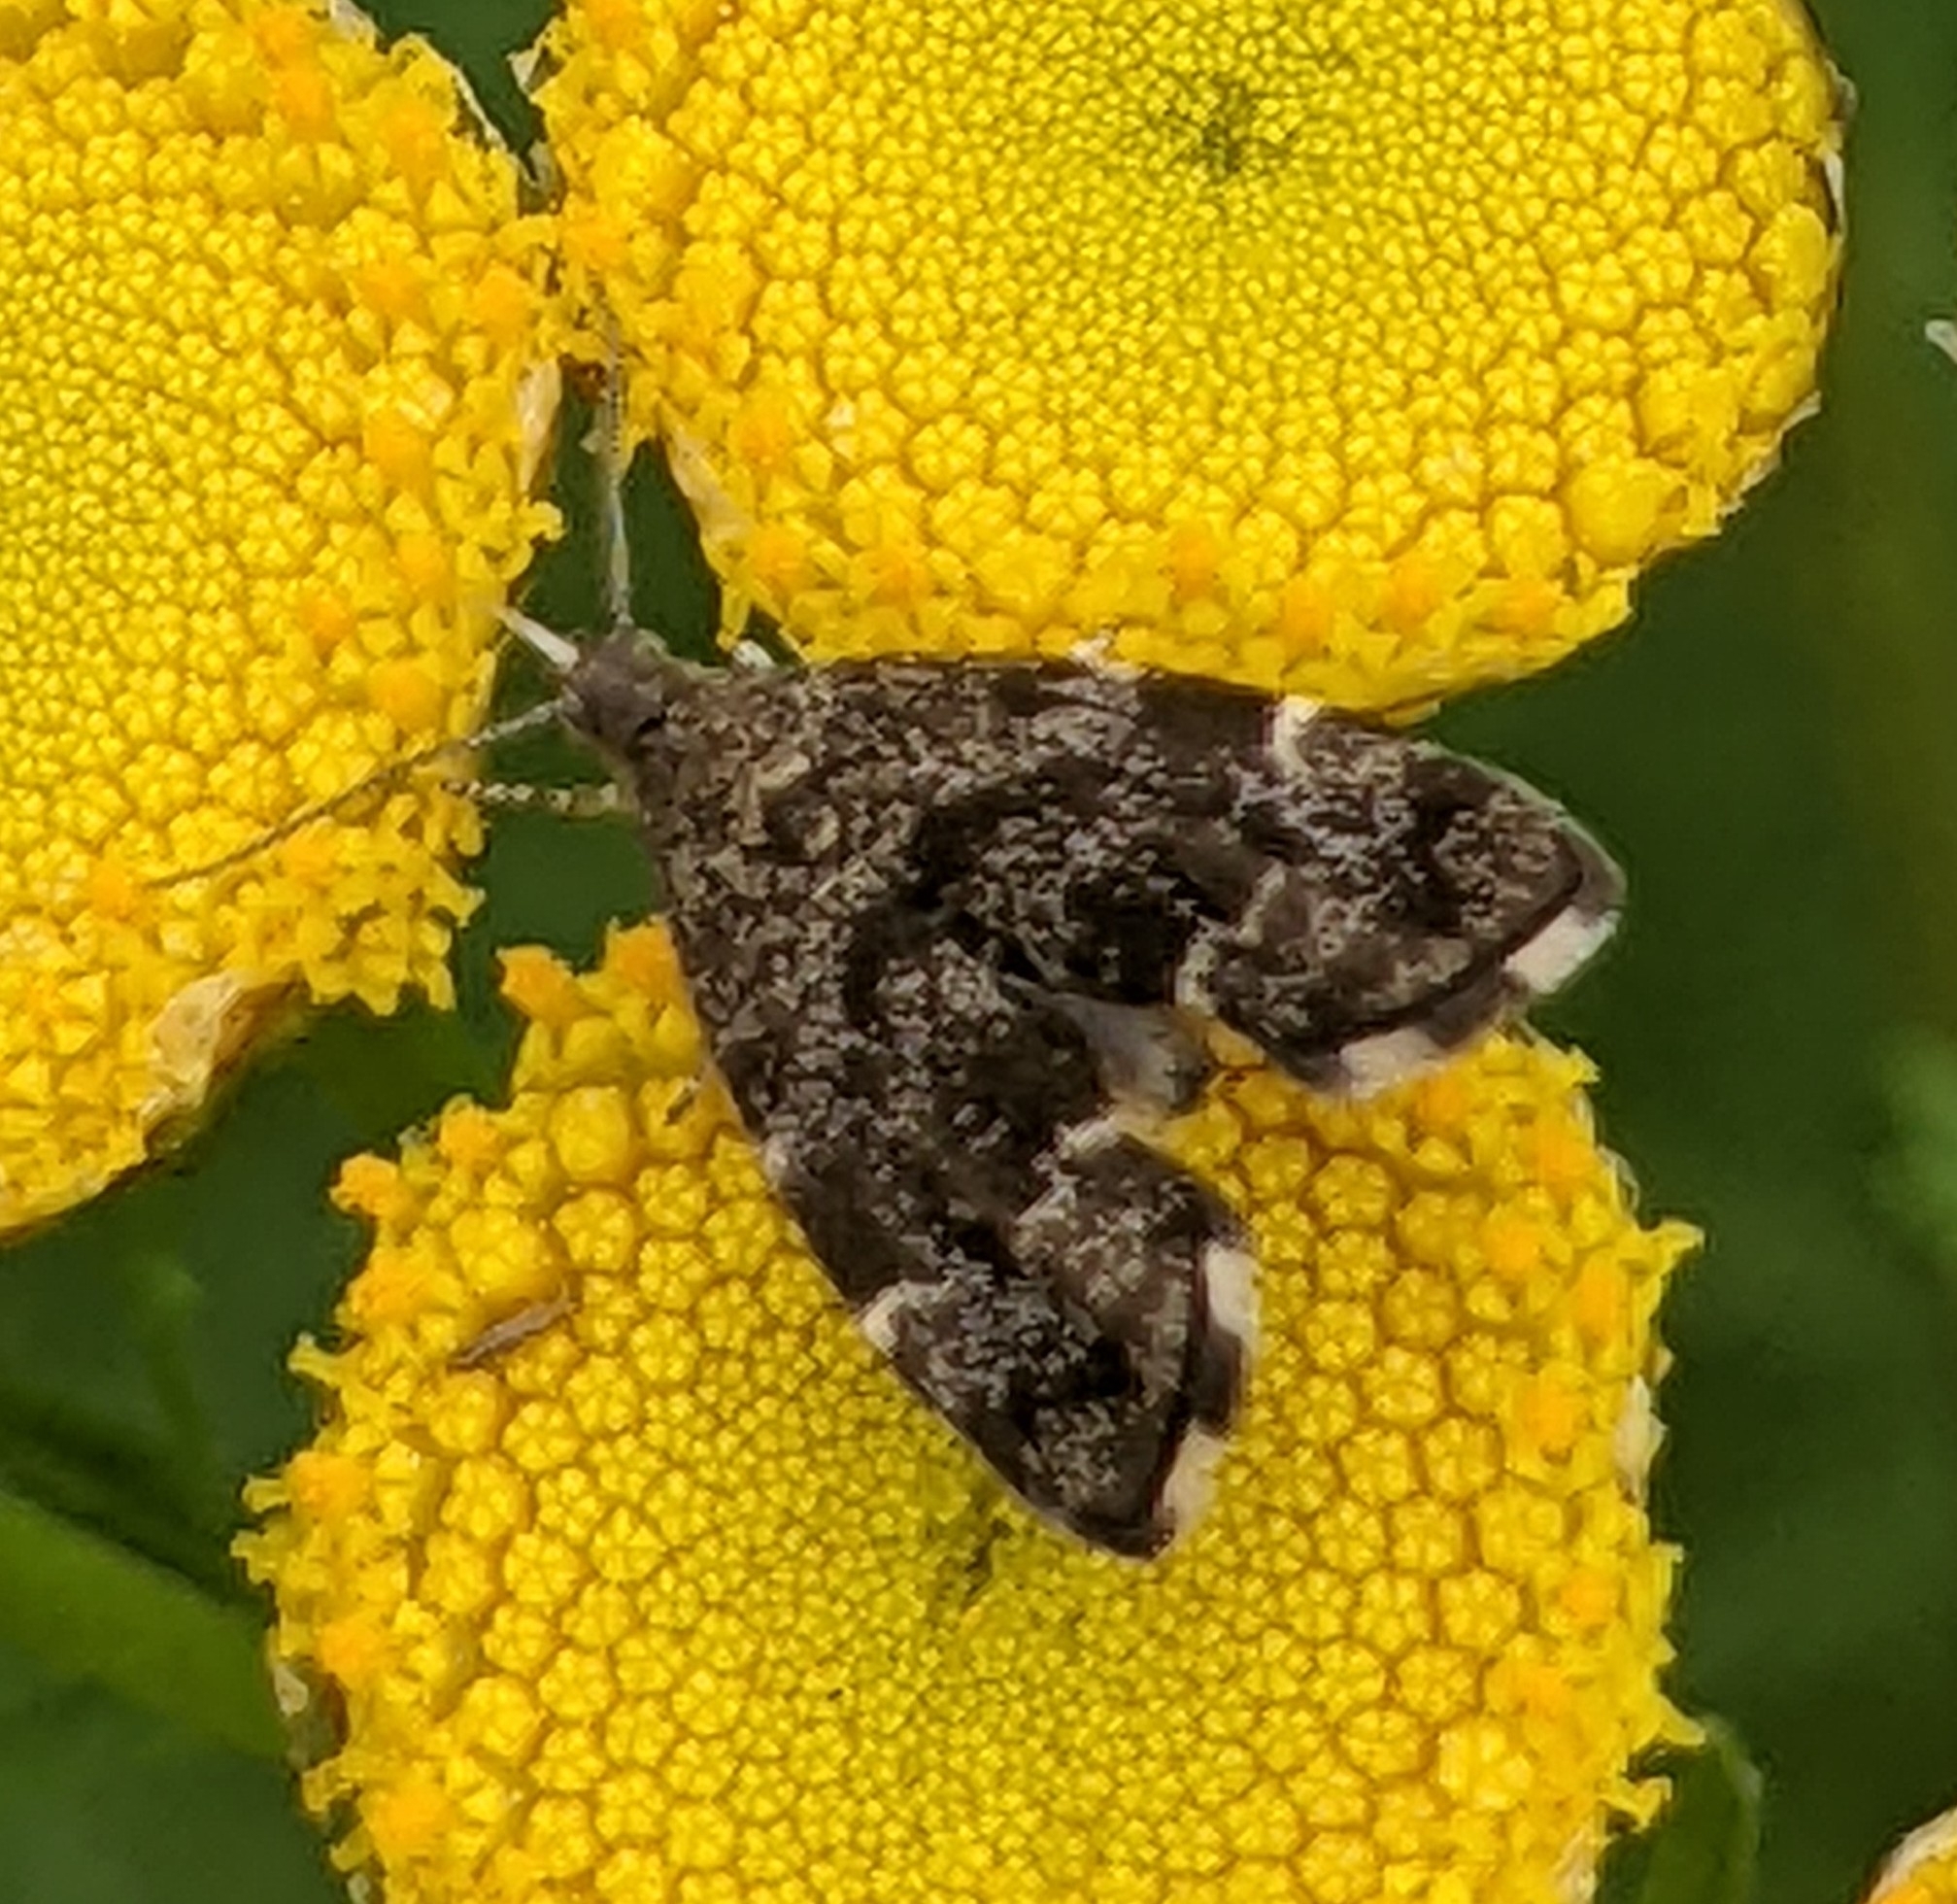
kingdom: Animalia
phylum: Arthropoda
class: Insecta
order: Lepidoptera
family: Choreutidae
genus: Anthophila
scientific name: Anthophila fabriciana
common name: Nettle-tap
